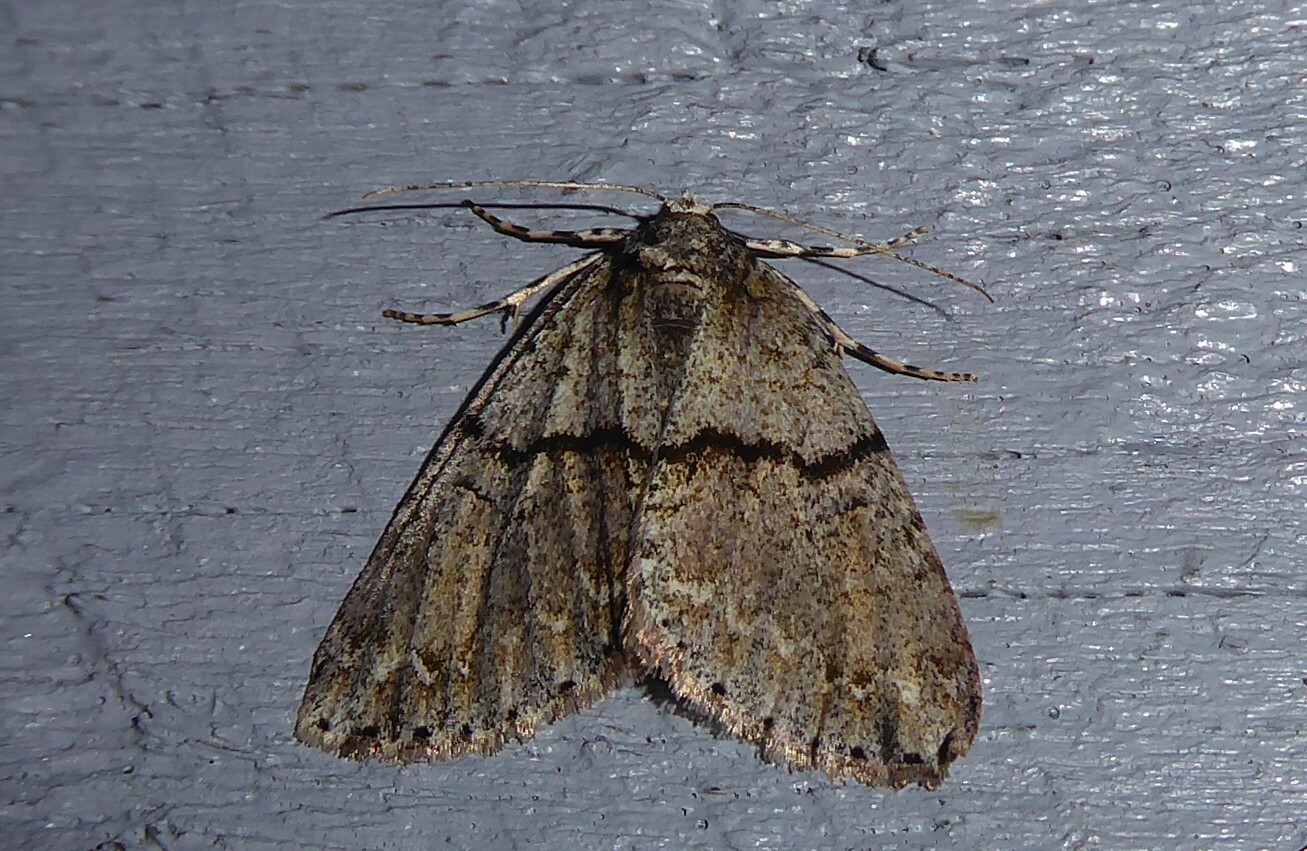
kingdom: Animalia
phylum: Arthropoda
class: Insecta
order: Lepidoptera
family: Geometridae
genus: Pseudocoremia
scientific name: Pseudocoremia suavis
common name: Common forest looper
